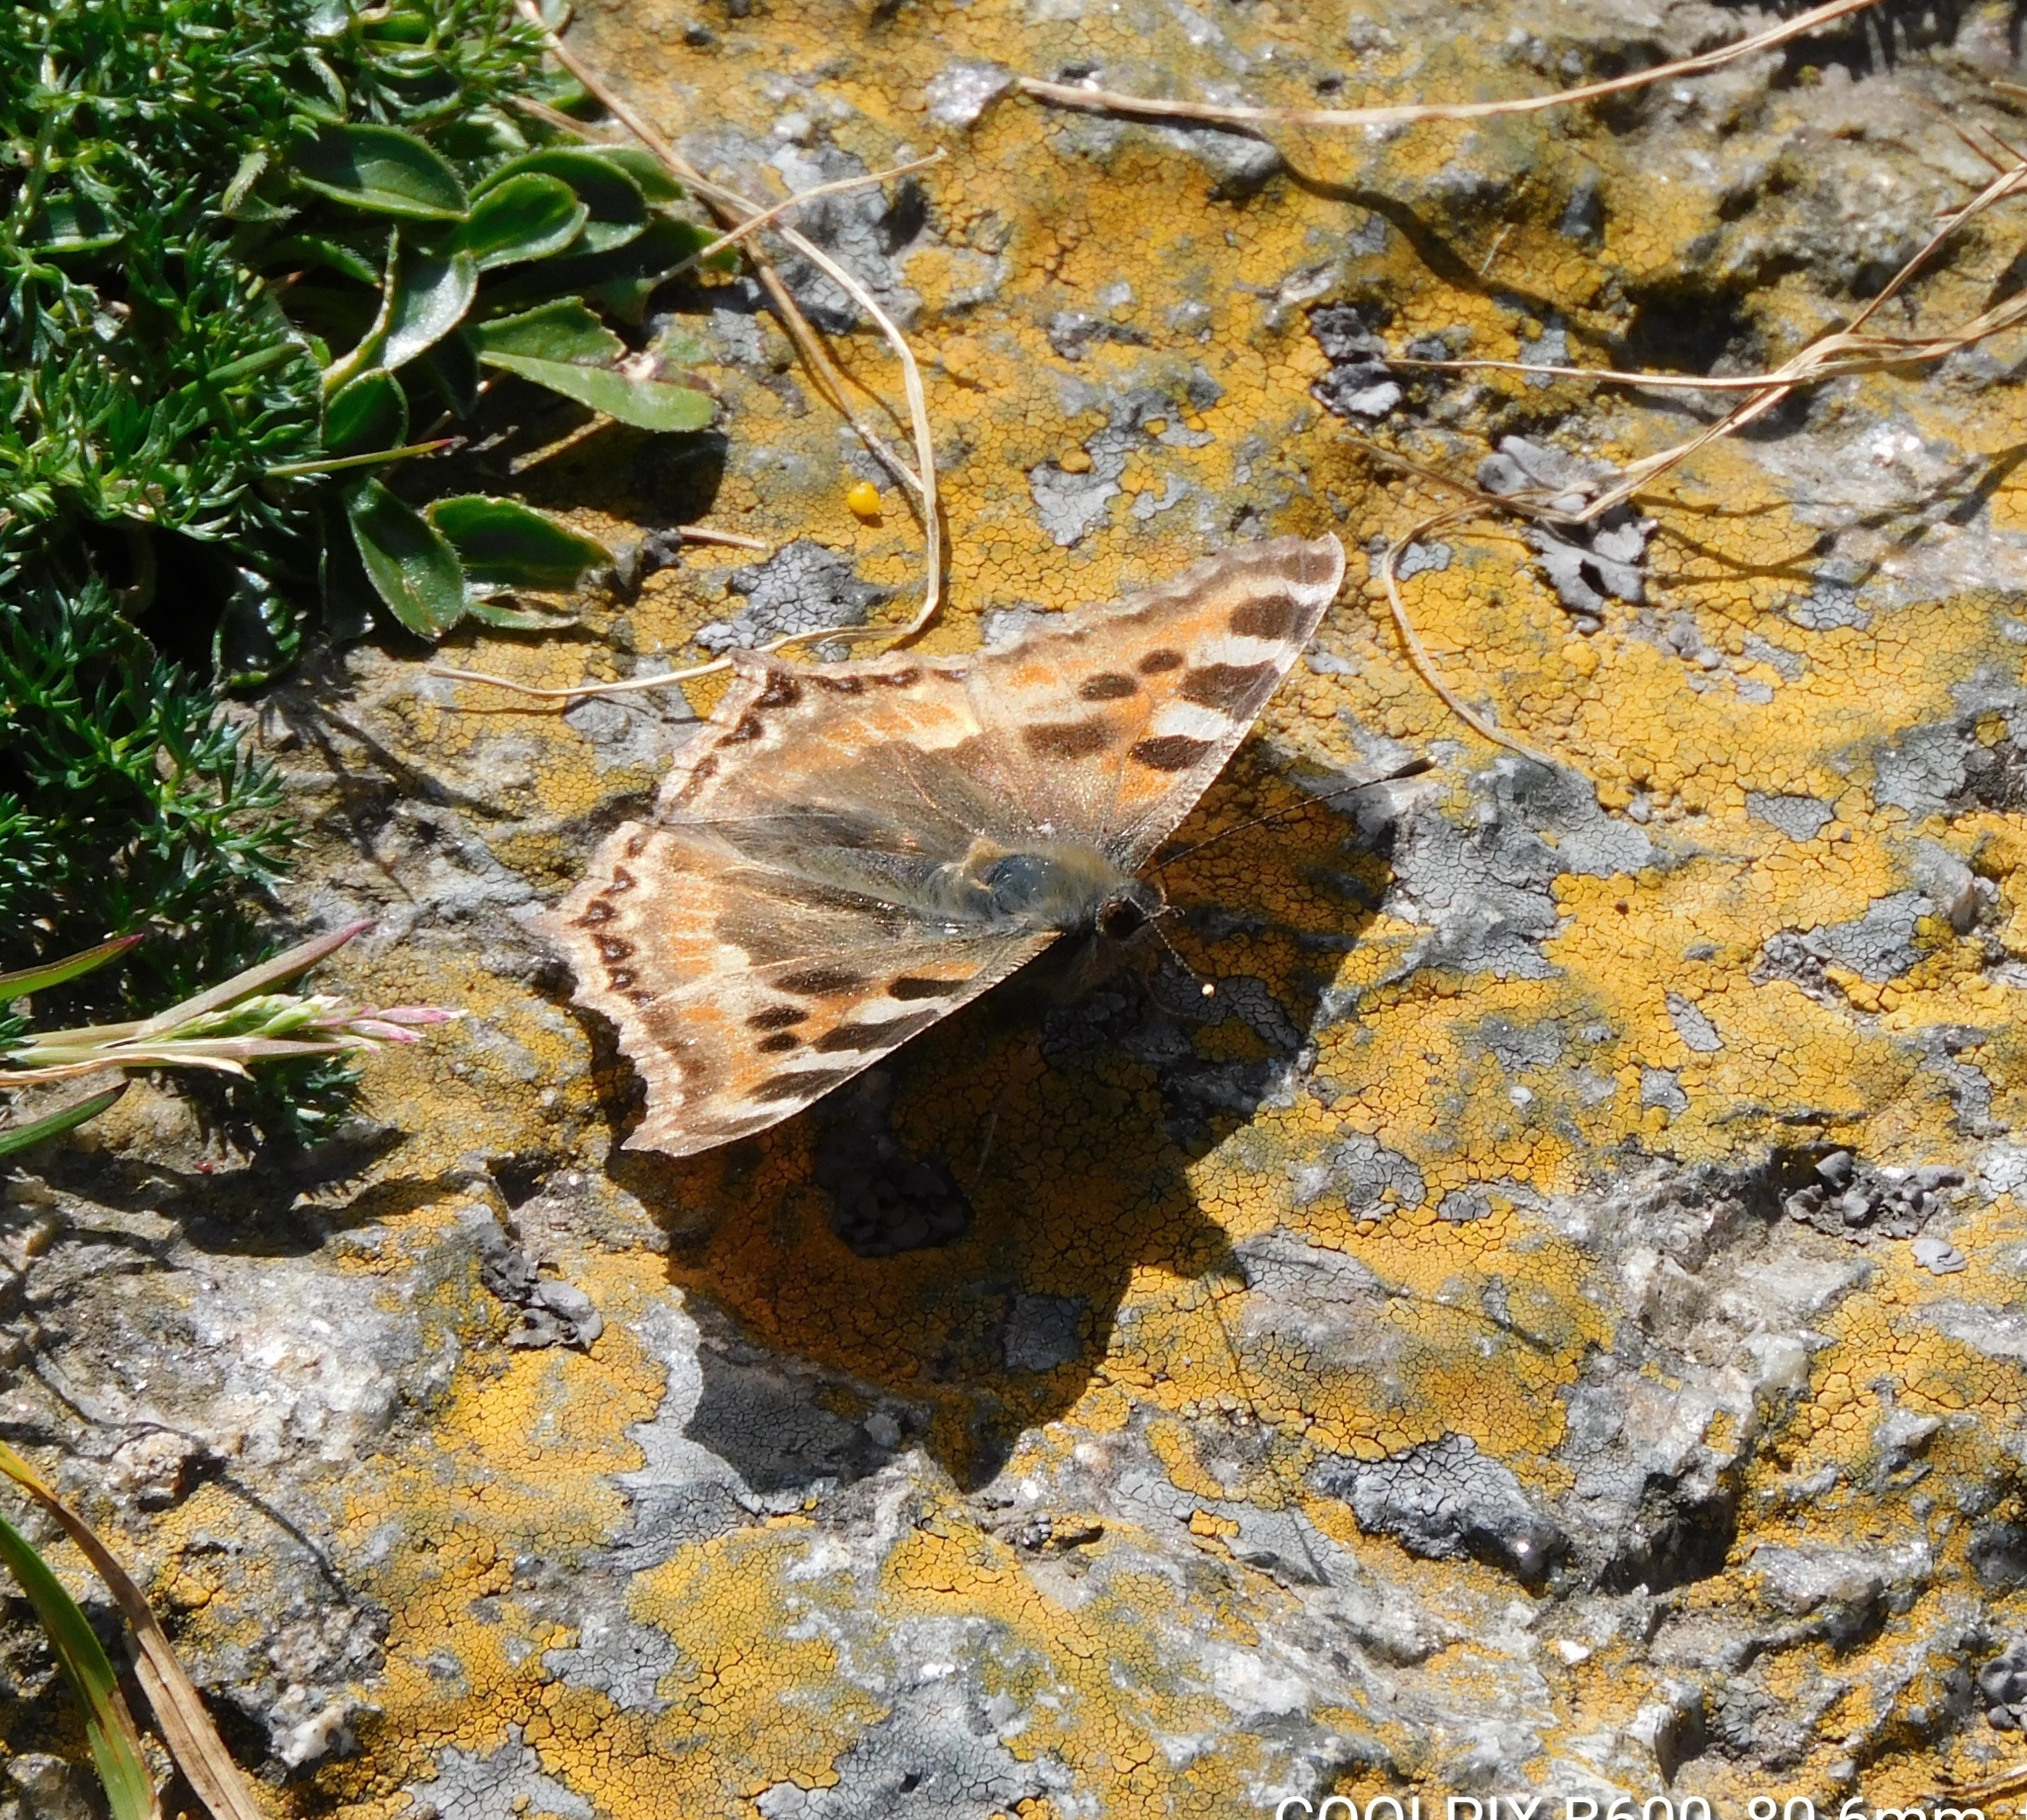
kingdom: Animalia
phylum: Arthropoda
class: Insecta
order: Lepidoptera
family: Nymphalidae
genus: Aglais
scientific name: Aglais caschmirensis
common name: Indian tortoiseshell
